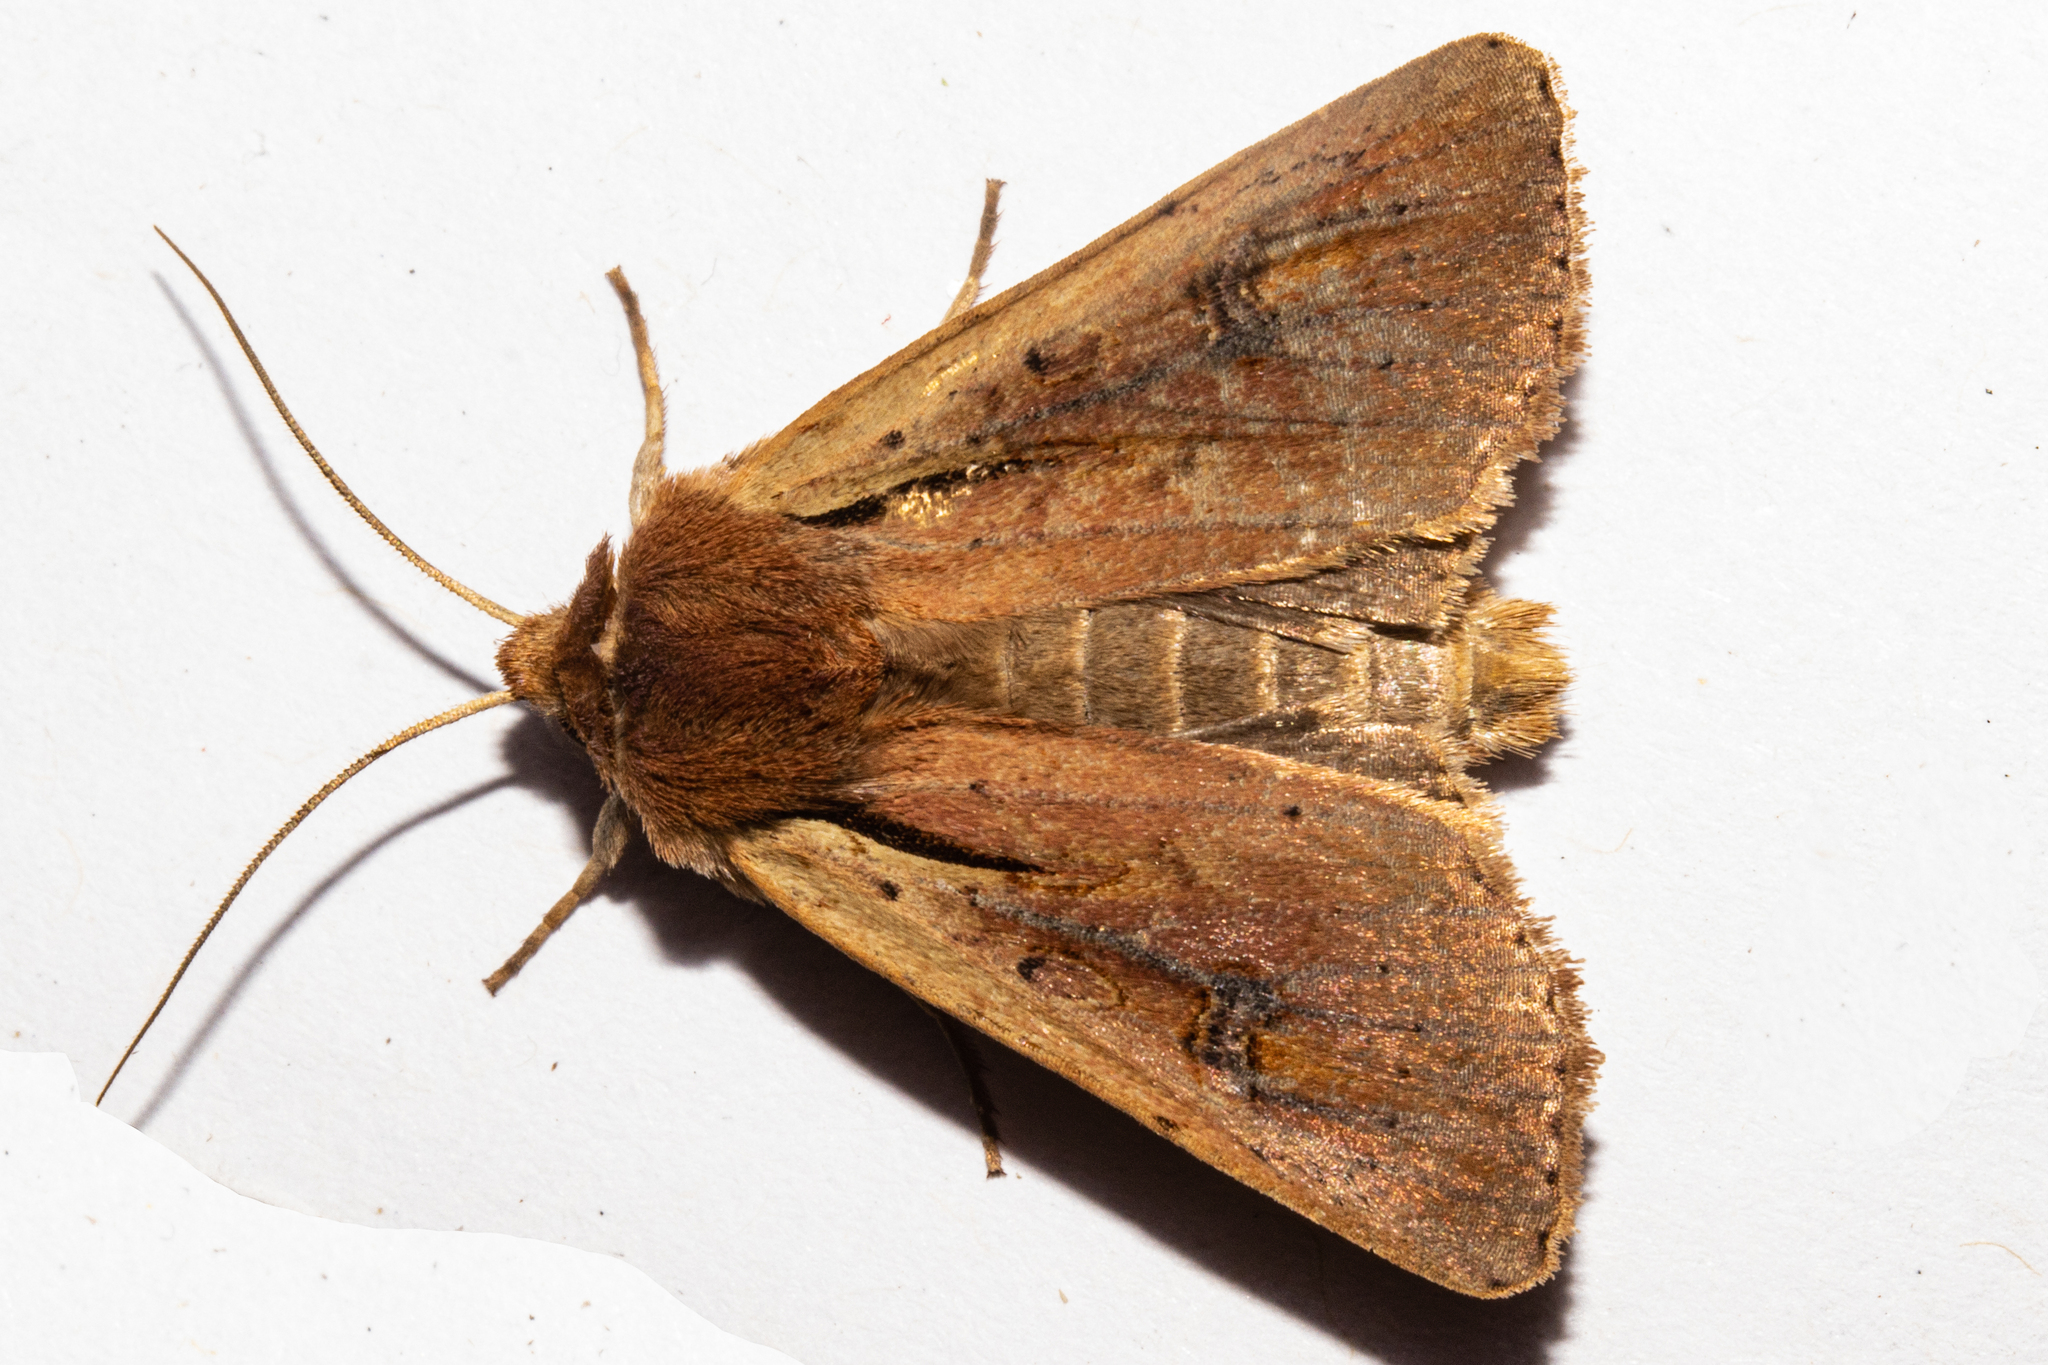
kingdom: Animalia
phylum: Arthropoda
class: Insecta
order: Lepidoptera
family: Noctuidae
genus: Ichneutica
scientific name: Ichneutica atristriga
